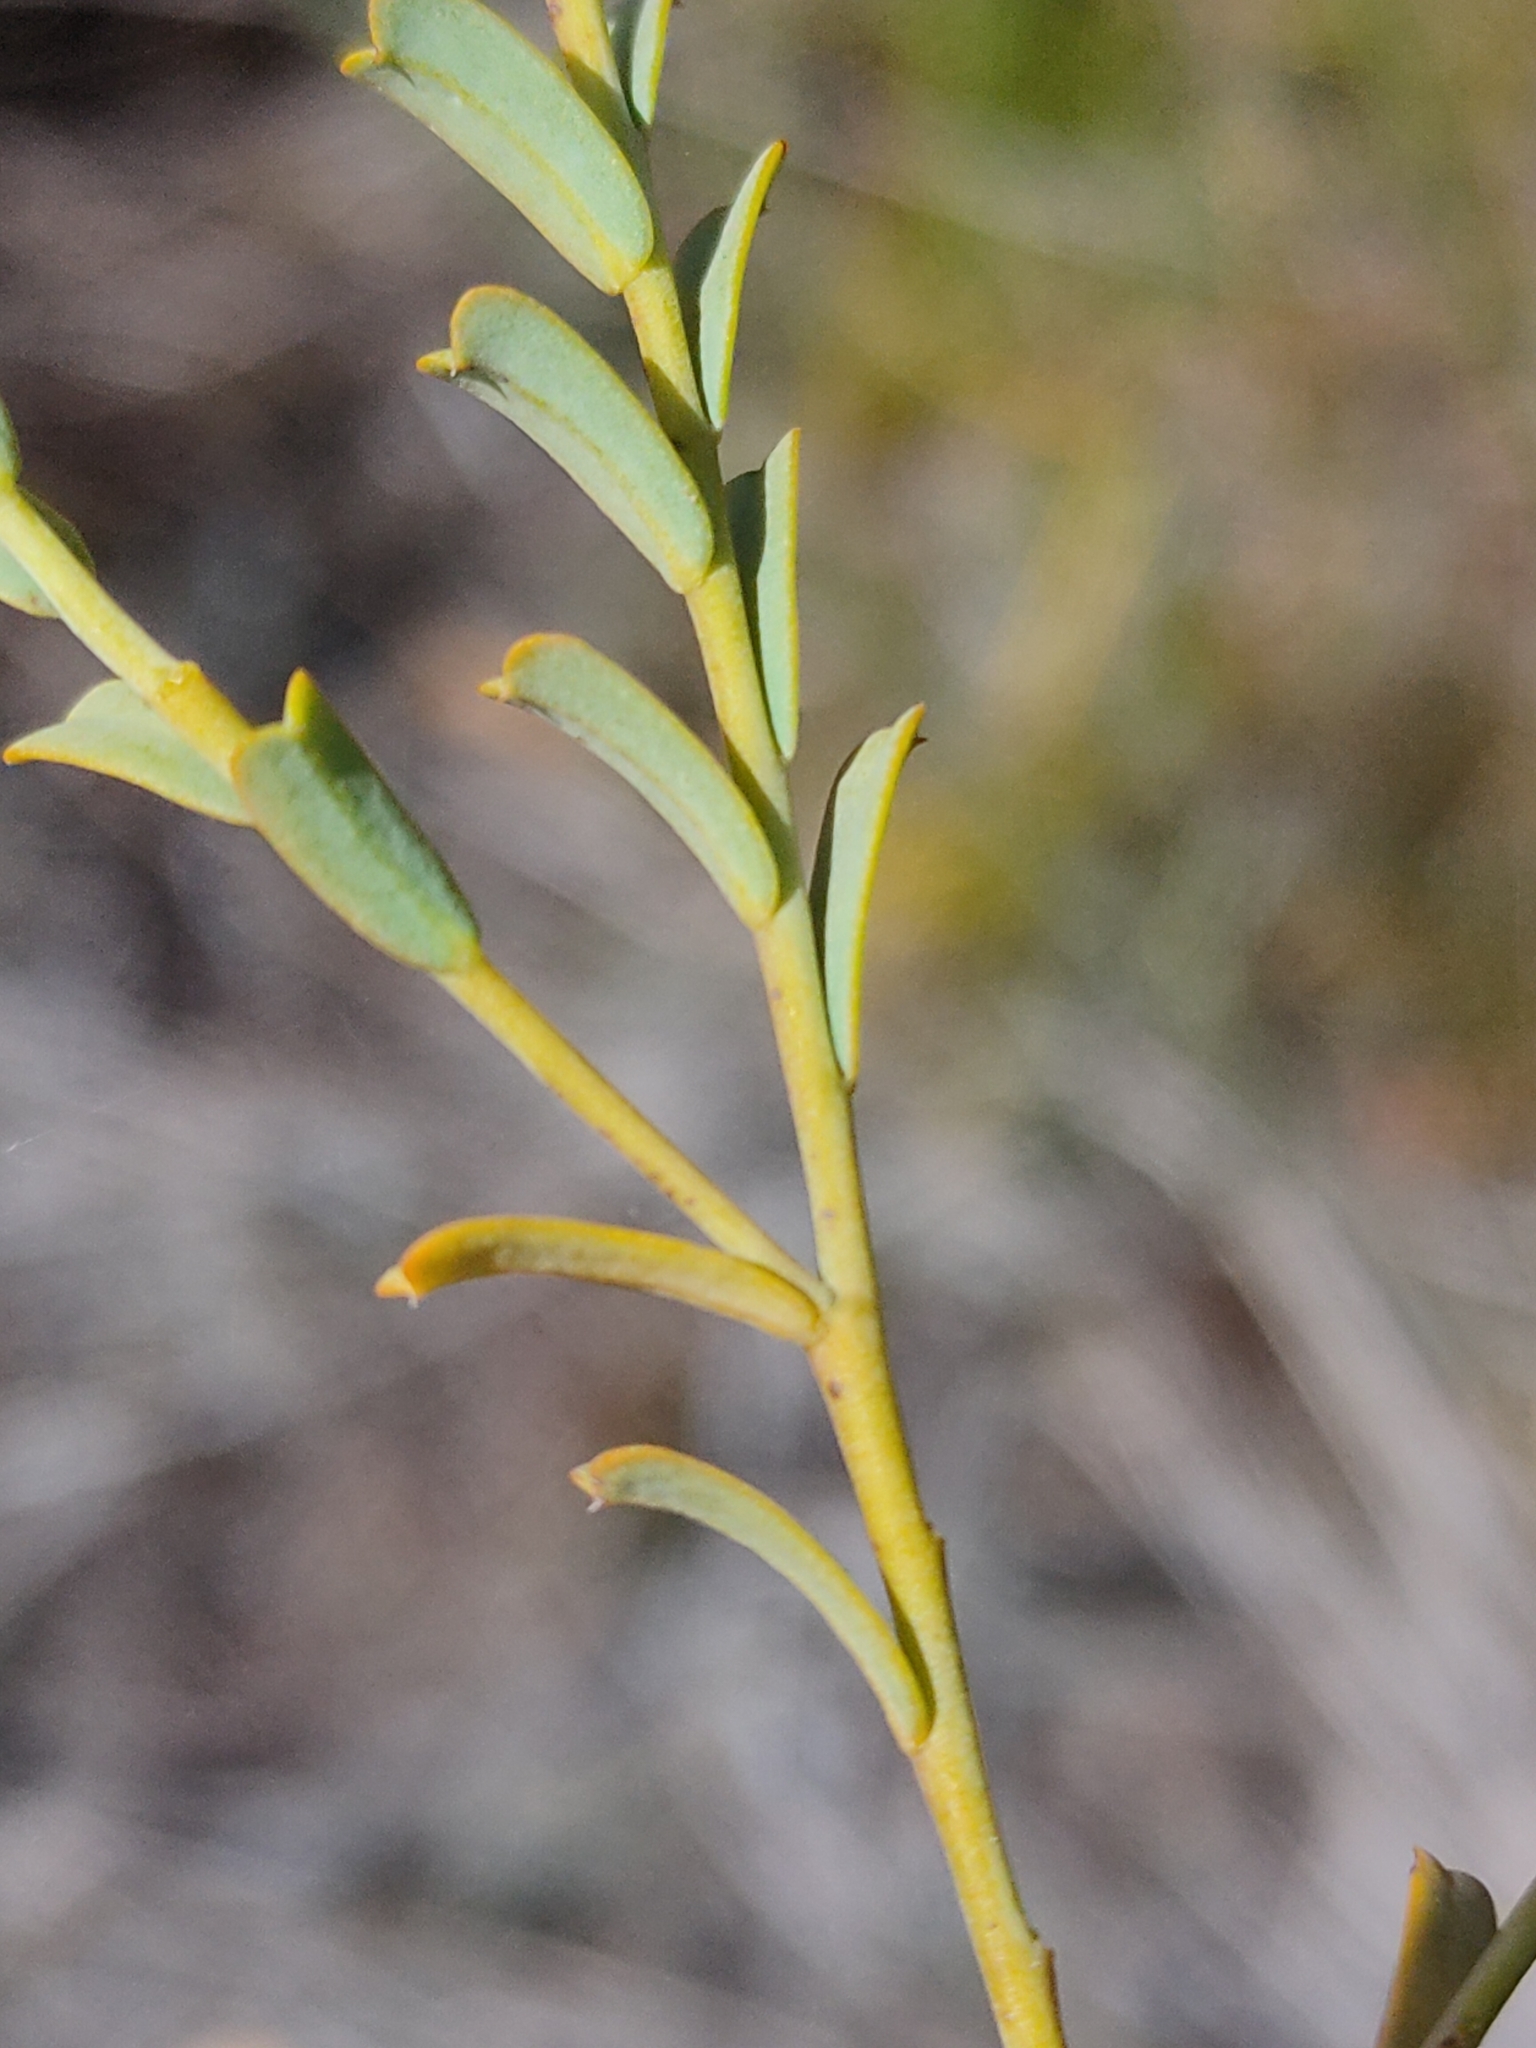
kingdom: Plantae
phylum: Tracheophyta
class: Magnoliopsida
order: Santalales
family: Olacaceae
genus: Olax
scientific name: Olax retusa
